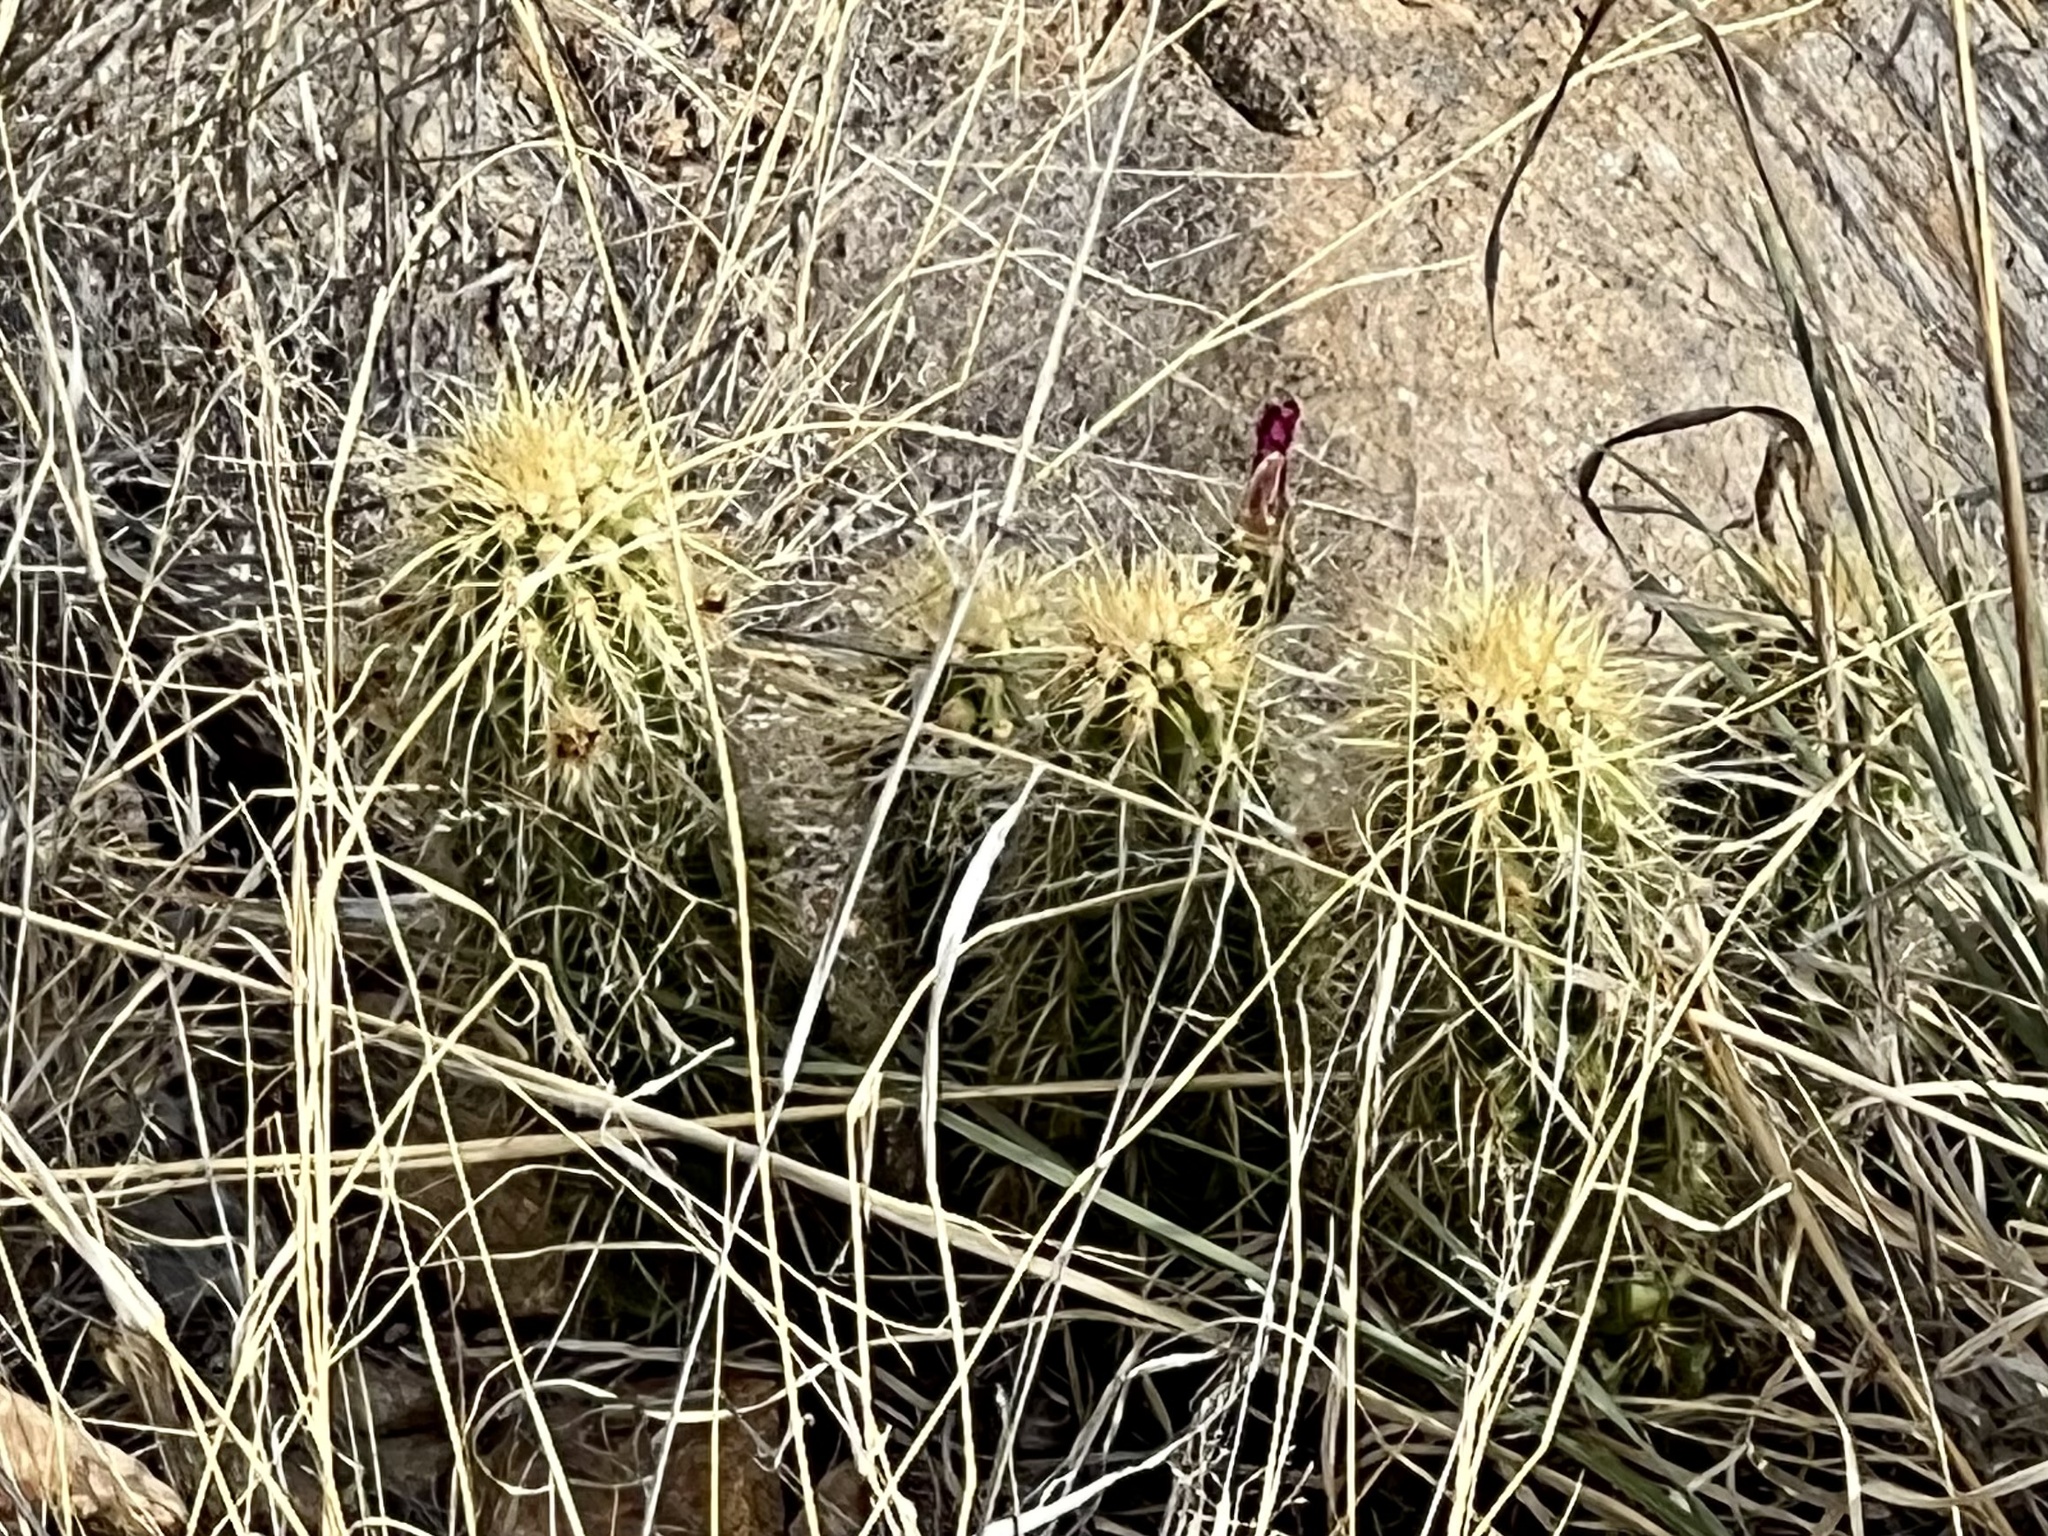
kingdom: Plantae
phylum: Tracheophyta
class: Magnoliopsida
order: Caryophyllales
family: Cactaceae
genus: Echinocereus
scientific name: Echinocereus ledingii
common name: Leding's hedgehog cactus
